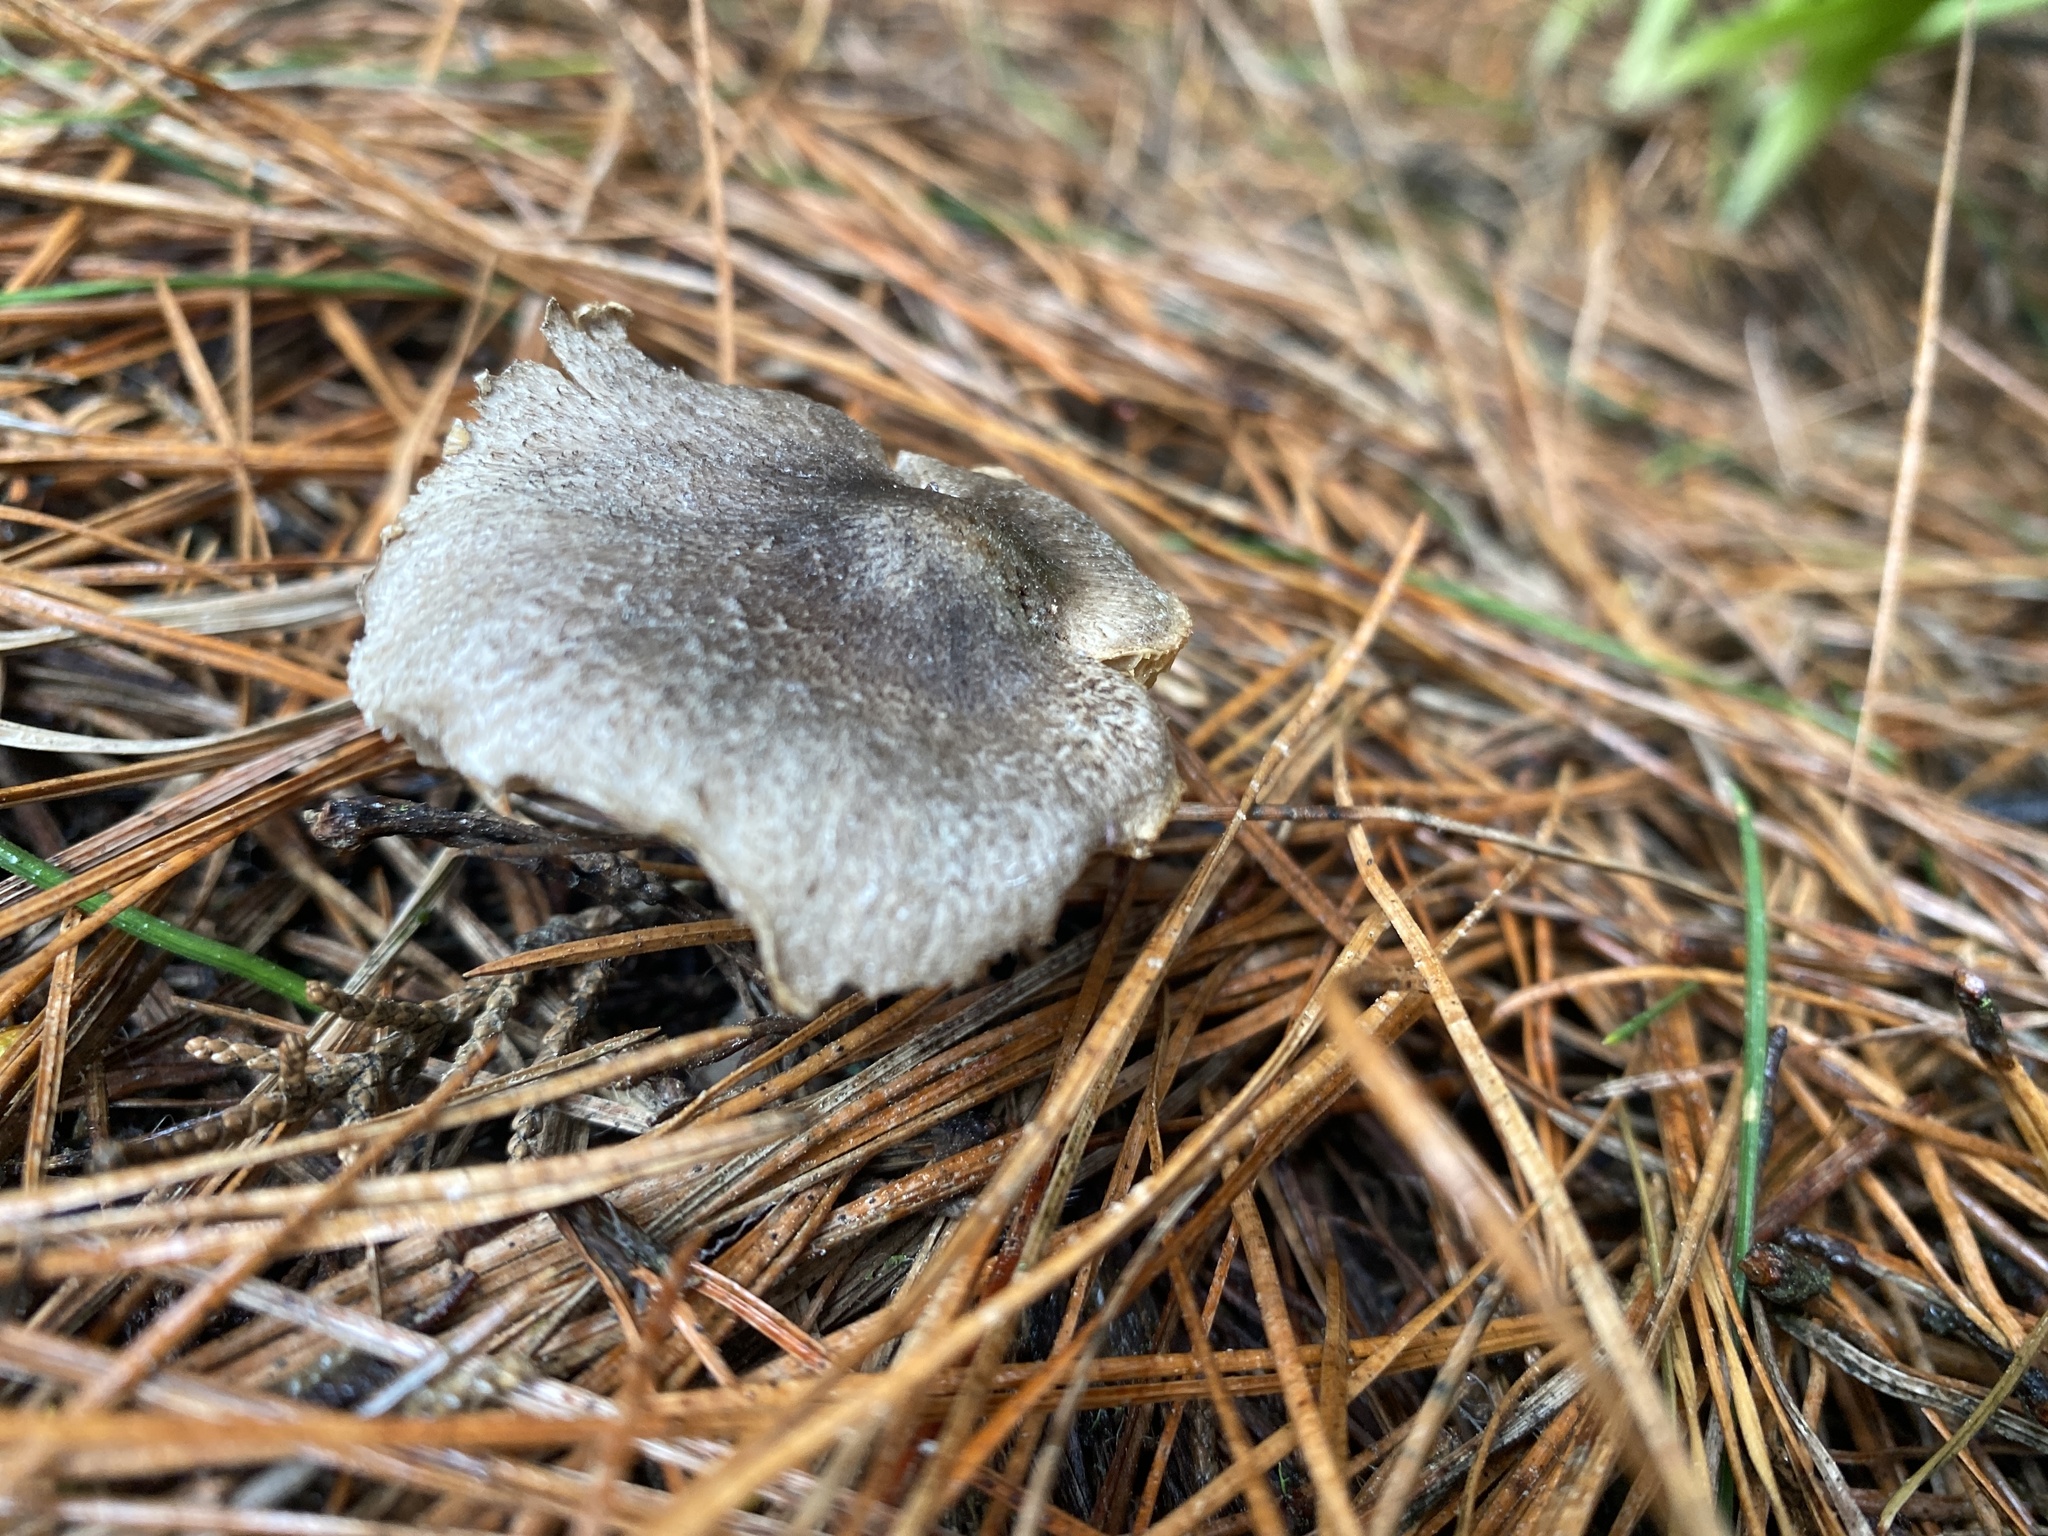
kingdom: Fungi
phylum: Basidiomycota
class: Agaricomycetes
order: Agaricales
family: Tricholomataceae
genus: Tricholoma
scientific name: Tricholoma terreum
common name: Grey knight
